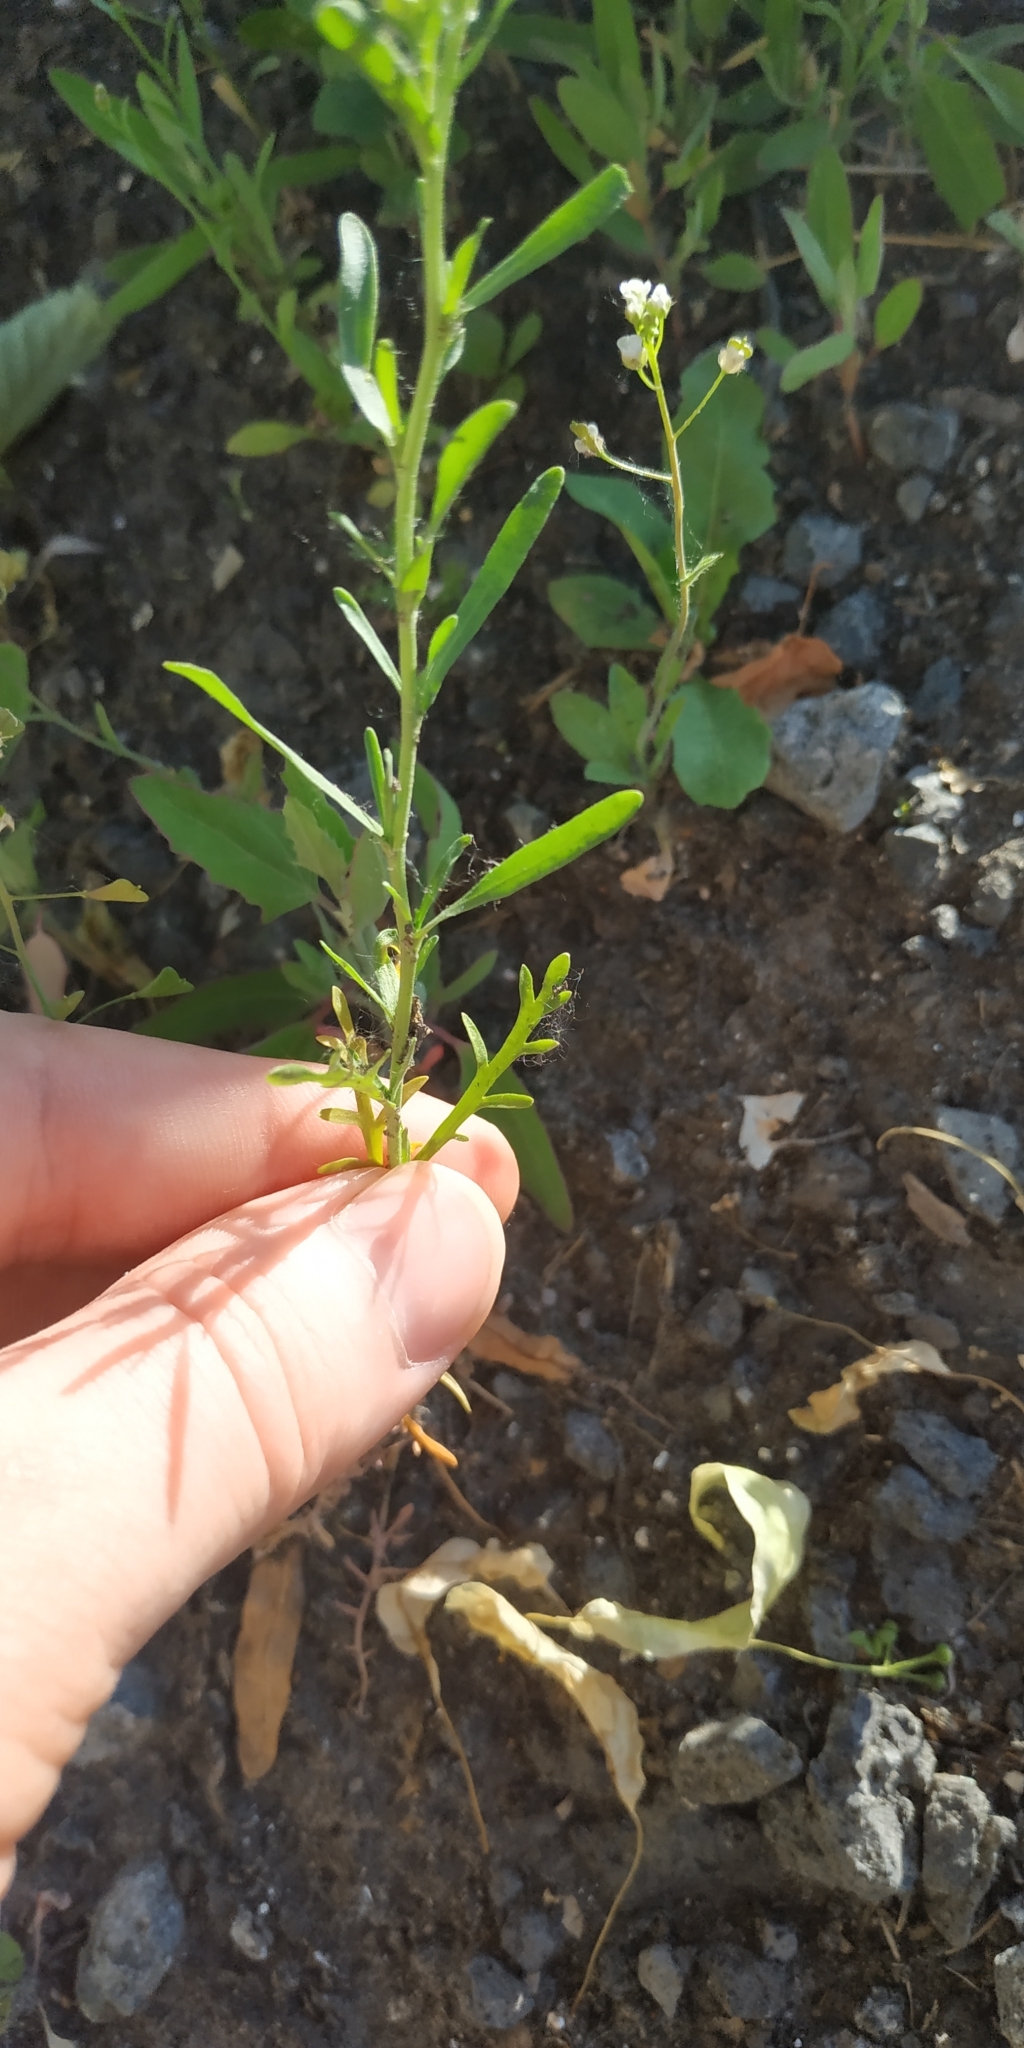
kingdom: Plantae
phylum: Tracheophyta
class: Magnoliopsida
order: Brassicales
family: Brassicaceae
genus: Lepidium
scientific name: Lepidium densiflorum
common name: Miner's pepperwort
